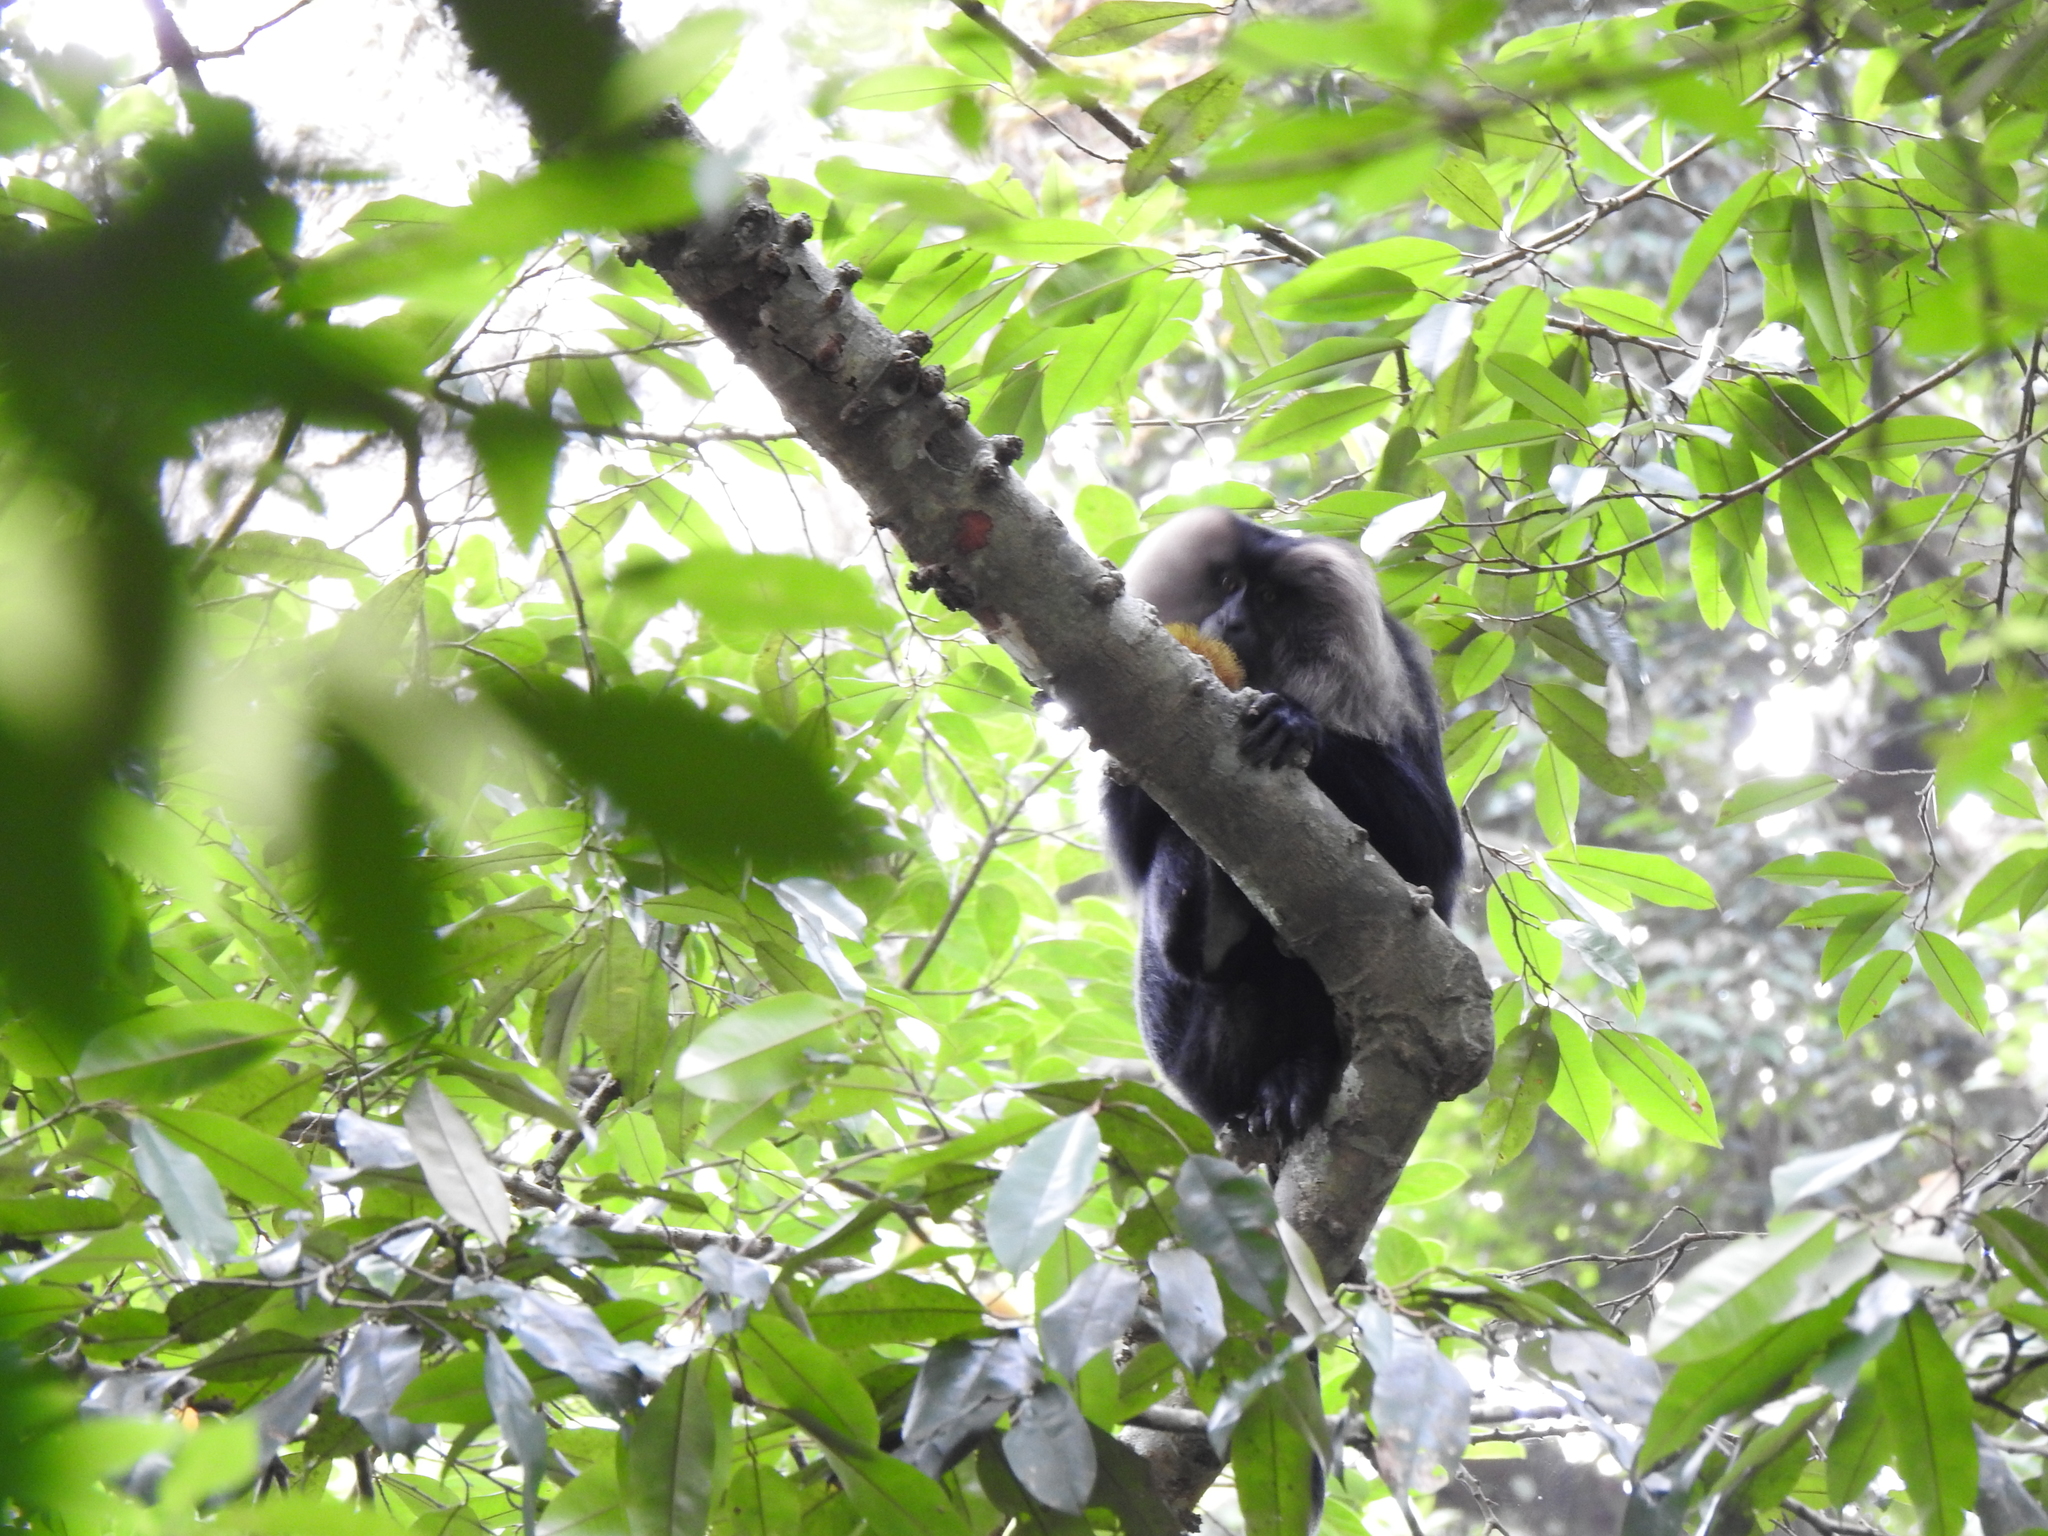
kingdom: Animalia
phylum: Chordata
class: Mammalia
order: Primates
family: Cercopithecidae
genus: Macaca
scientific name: Macaca silenus
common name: Lion-tailed macaque
